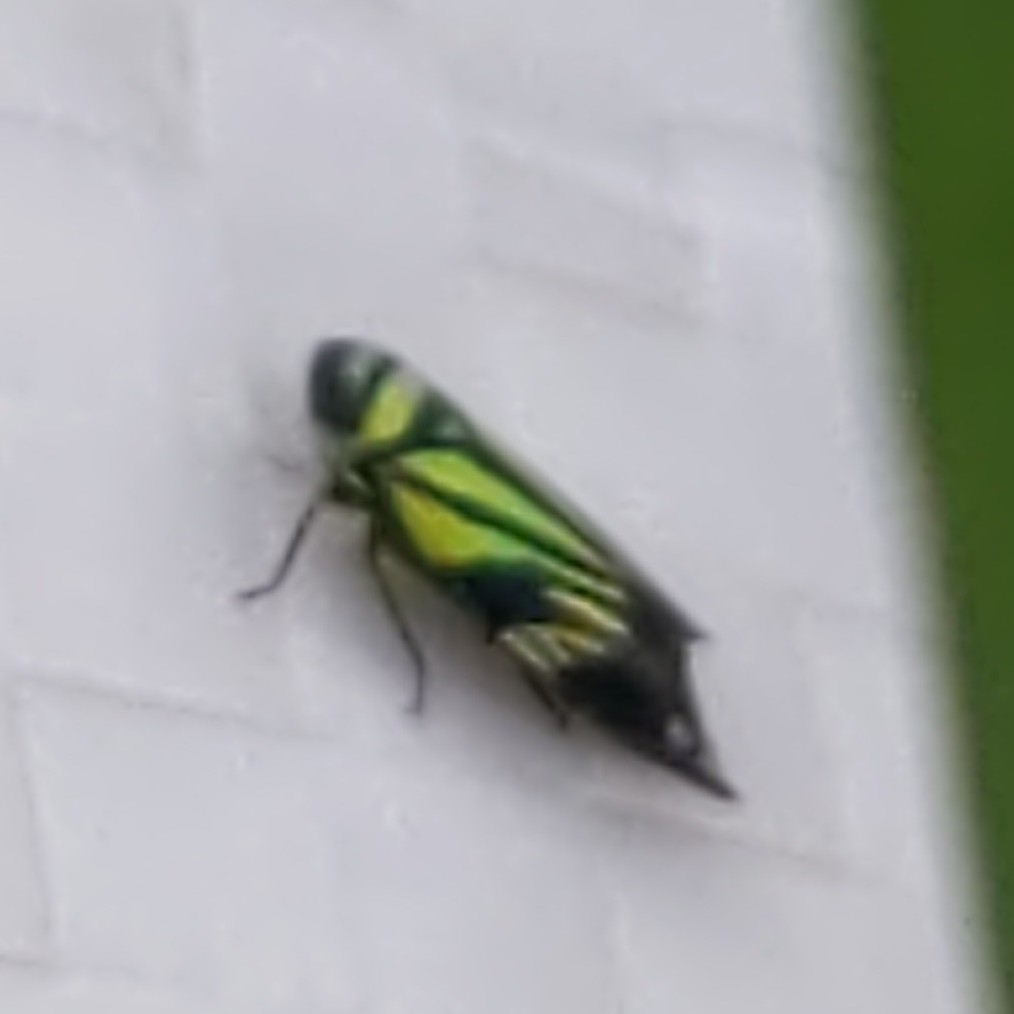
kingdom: Animalia
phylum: Arthropoda
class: Insecta
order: Hemiptera
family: Cicadellidae
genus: Stirellus
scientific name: Stirellus bicolor
